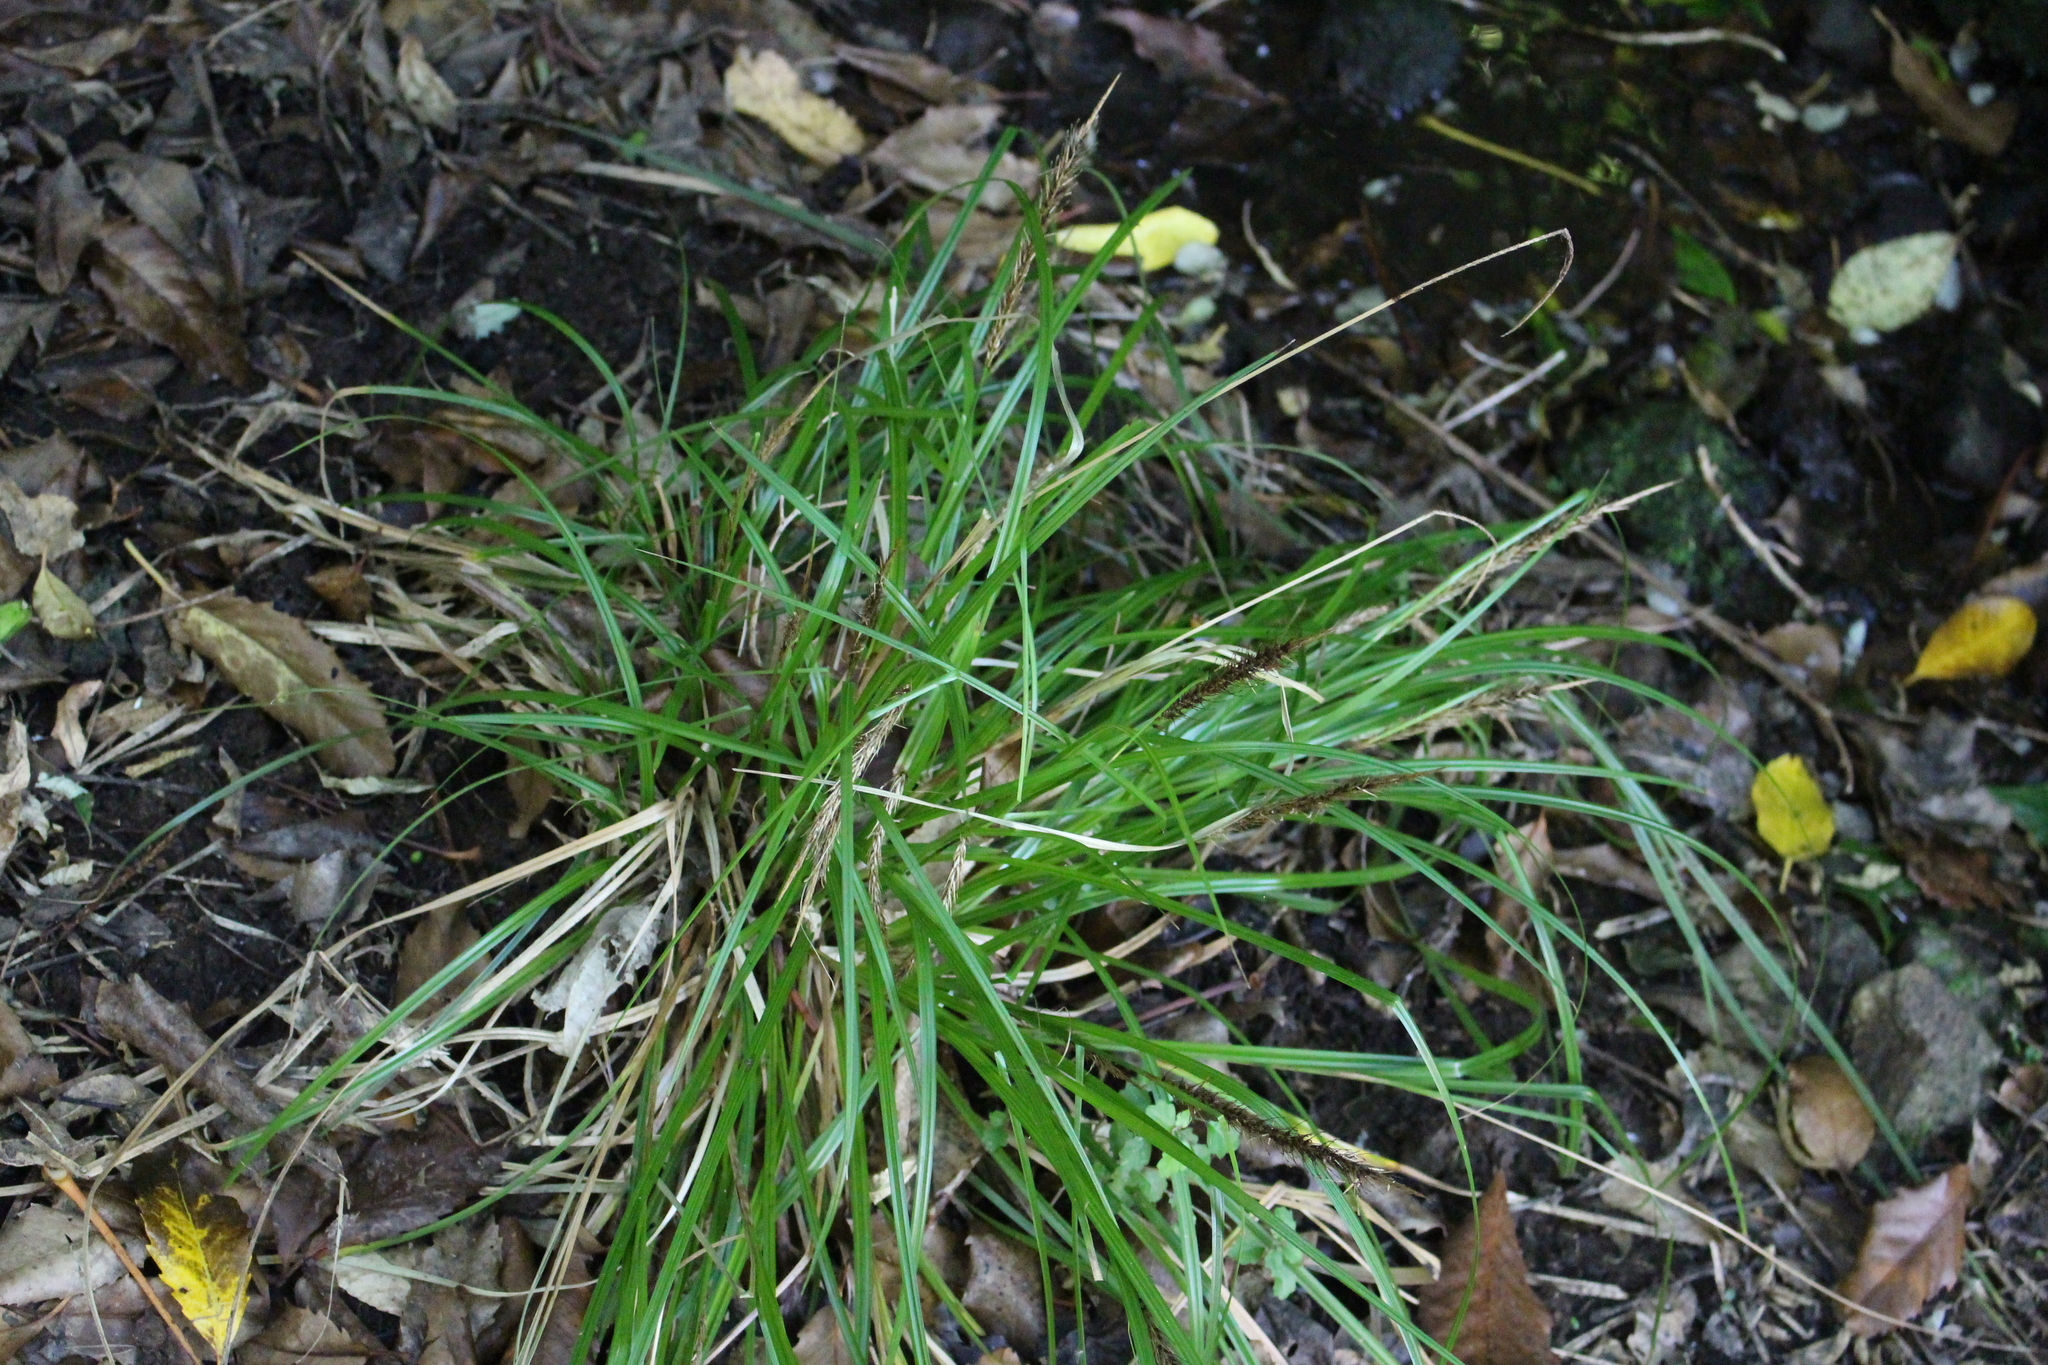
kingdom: Plantae
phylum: Tracheophyta
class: Liliopsida
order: Poales
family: Cyperaceae
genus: Carex
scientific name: Carex megalepis
